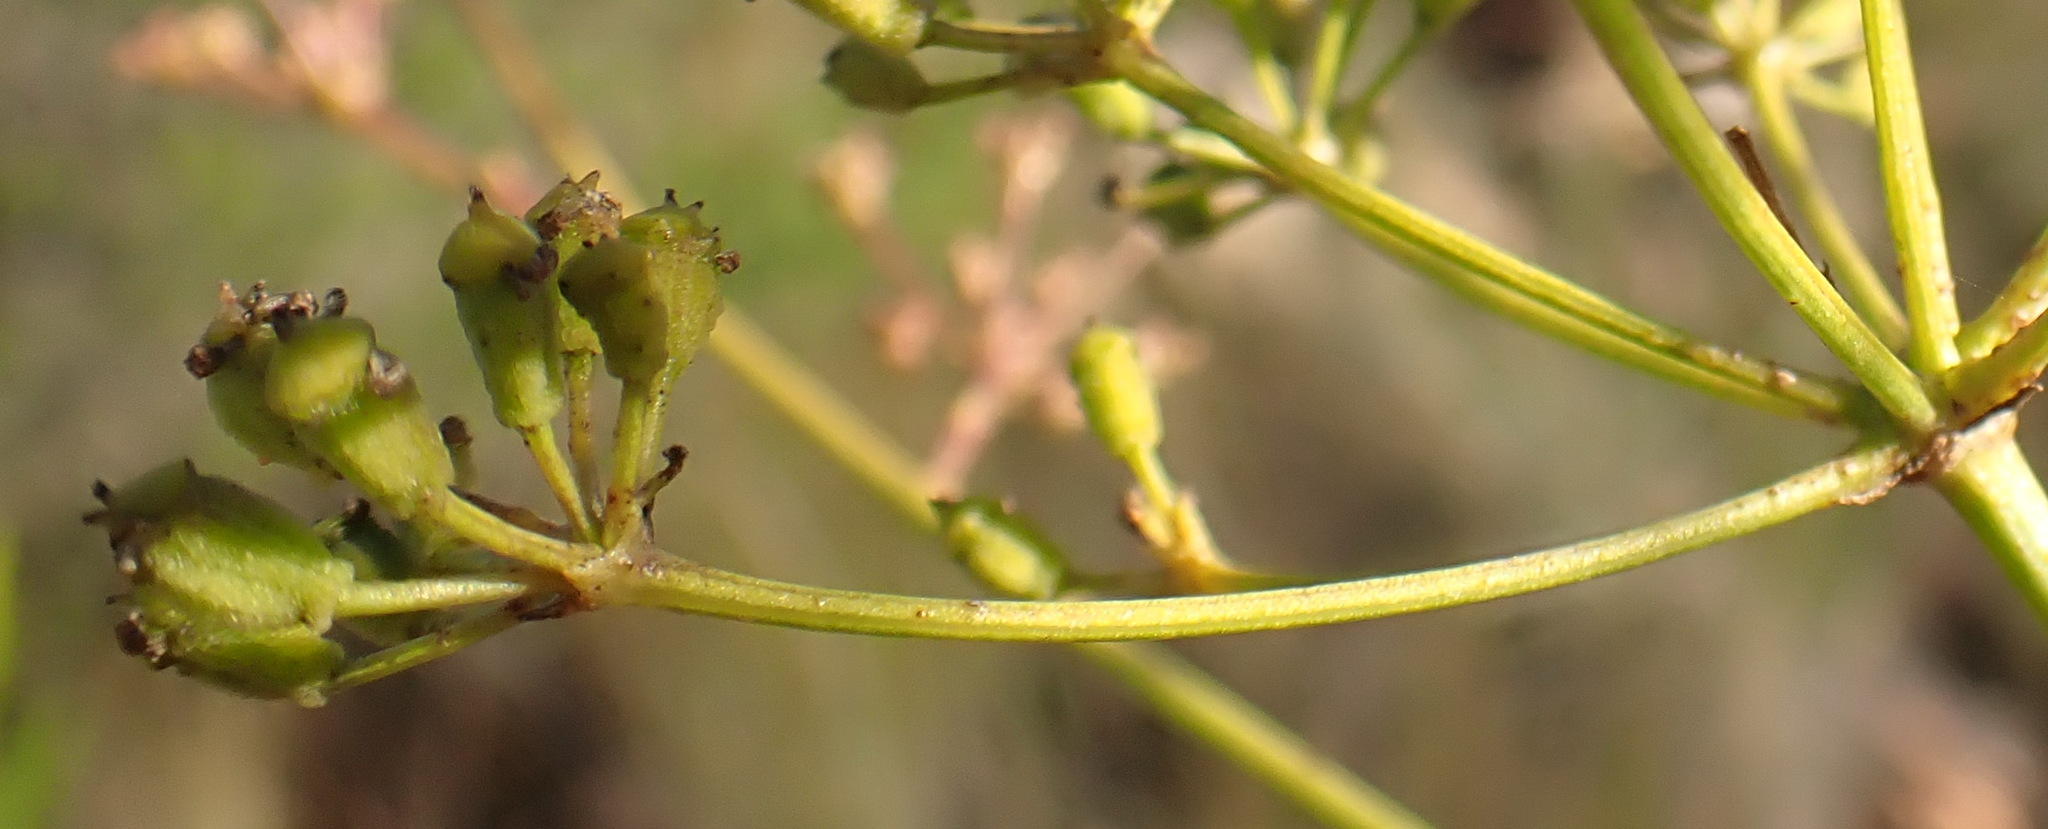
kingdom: Plantae
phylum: Tracheophyta
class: Magnoliopsida
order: Apiales
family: Apiaceae
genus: Anginon
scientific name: Anginon difforme
